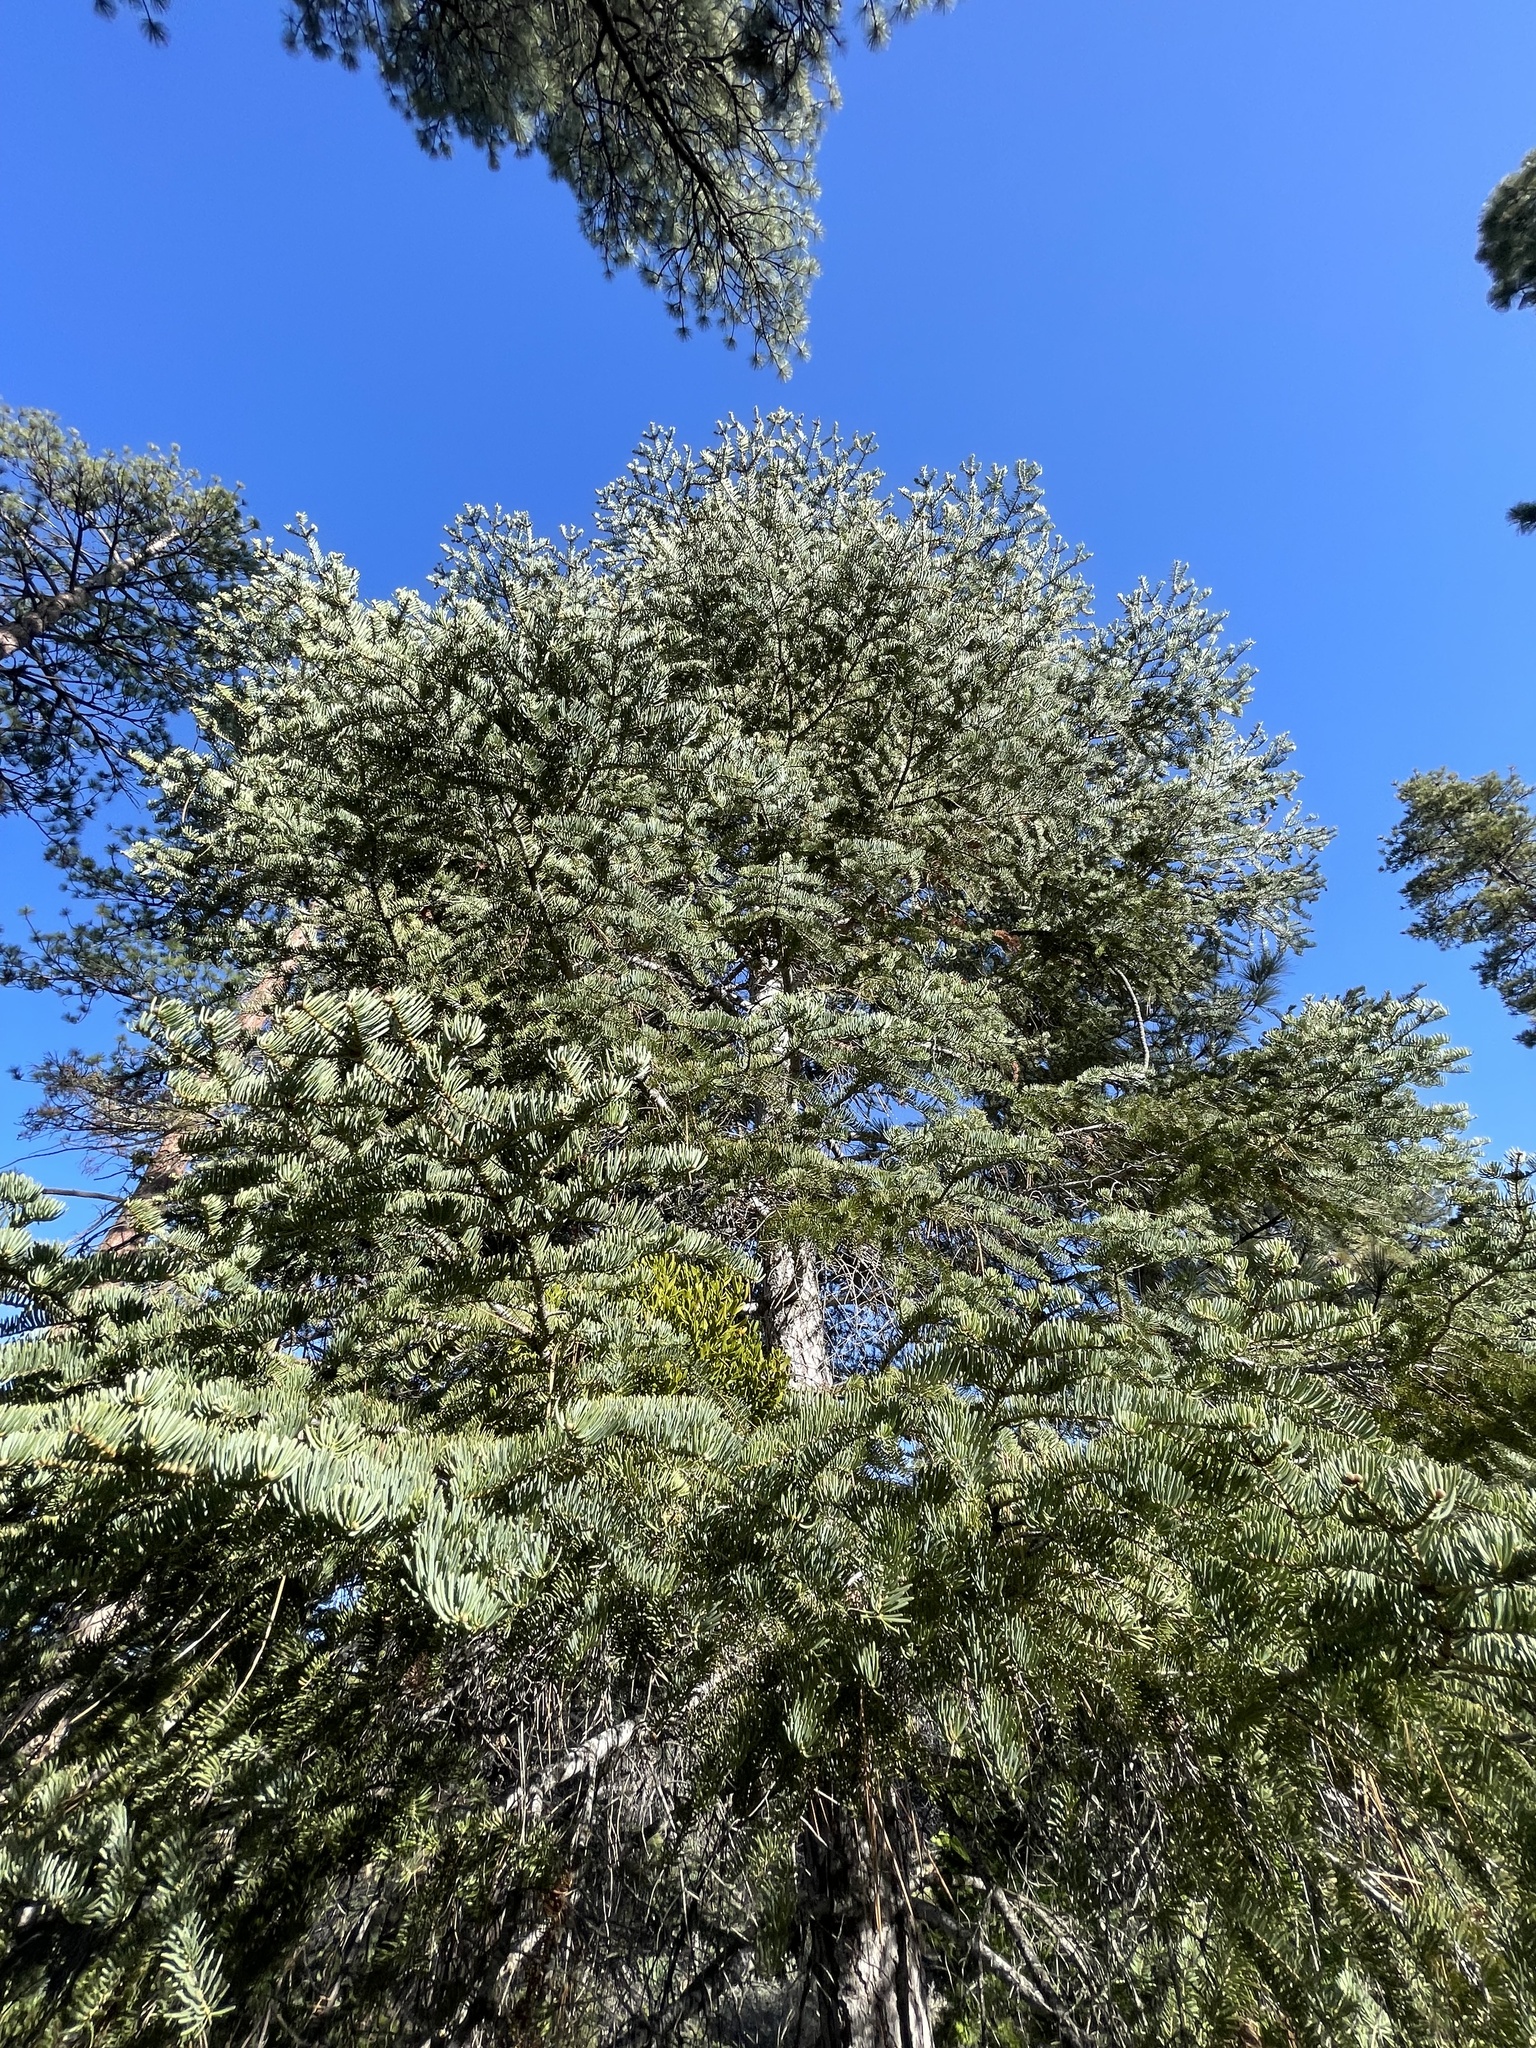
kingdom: Plantae
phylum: Tracheophyta
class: Pinopsida
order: Pinales
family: Pinaceae
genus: Abies
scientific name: Abies concolor
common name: Colorado fir
